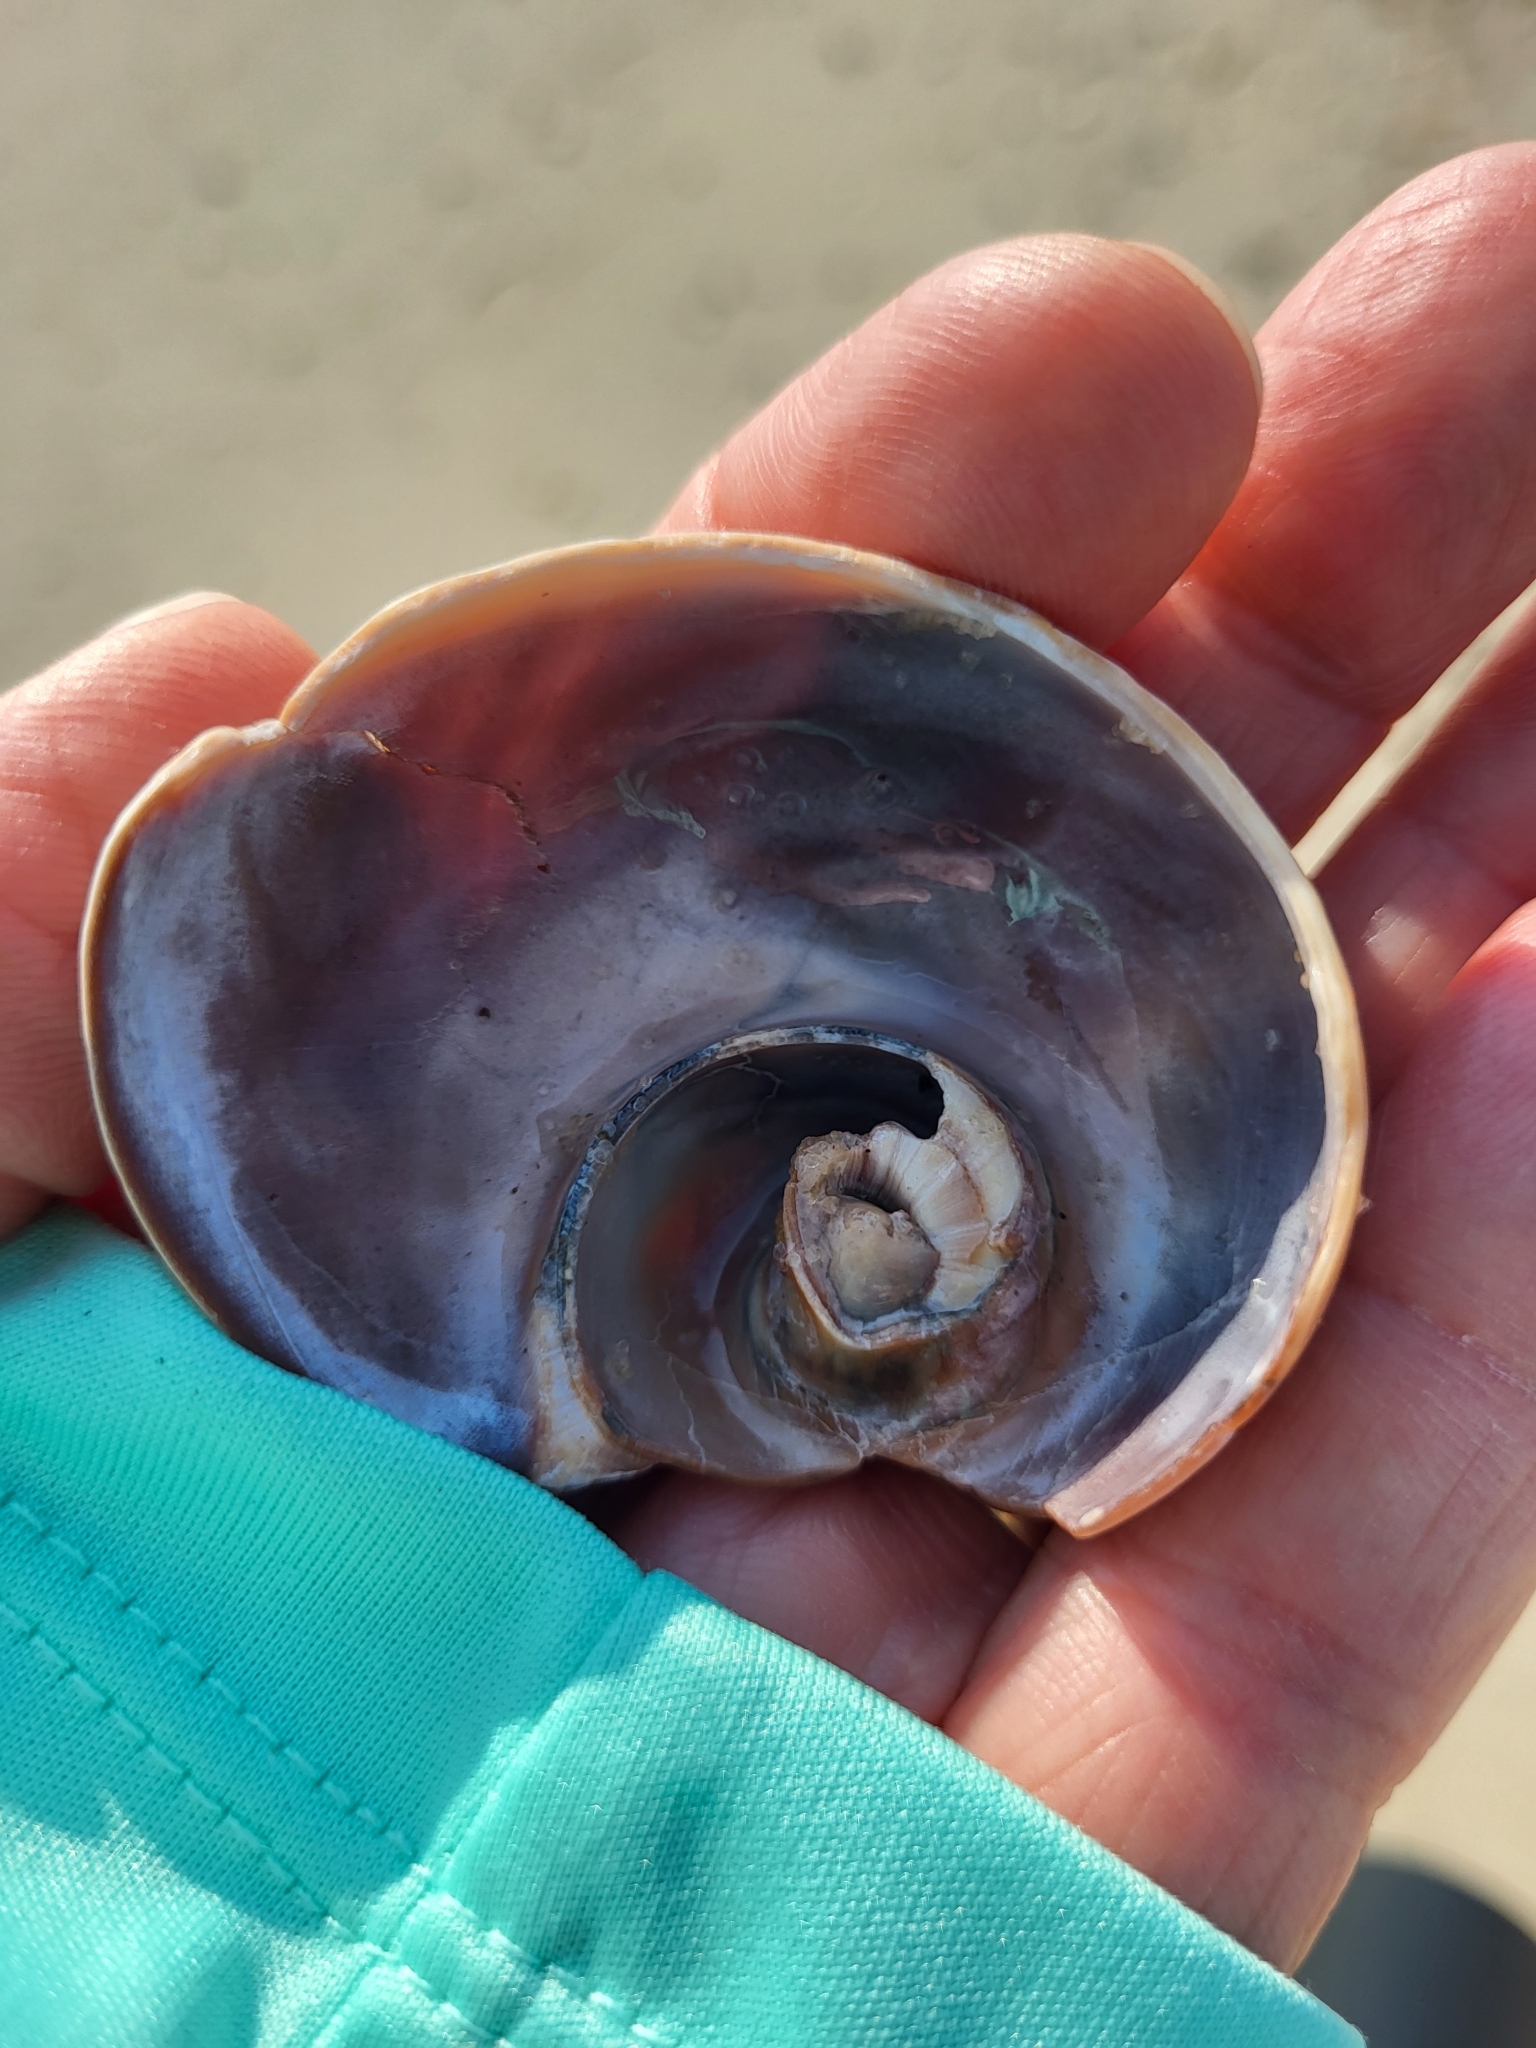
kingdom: Animalia
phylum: Mollusca
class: Gastropoda
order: Littorinimorpha
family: Naticidae
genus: Neverita
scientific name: Neverita duplicata
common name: Lobed moonsnail
